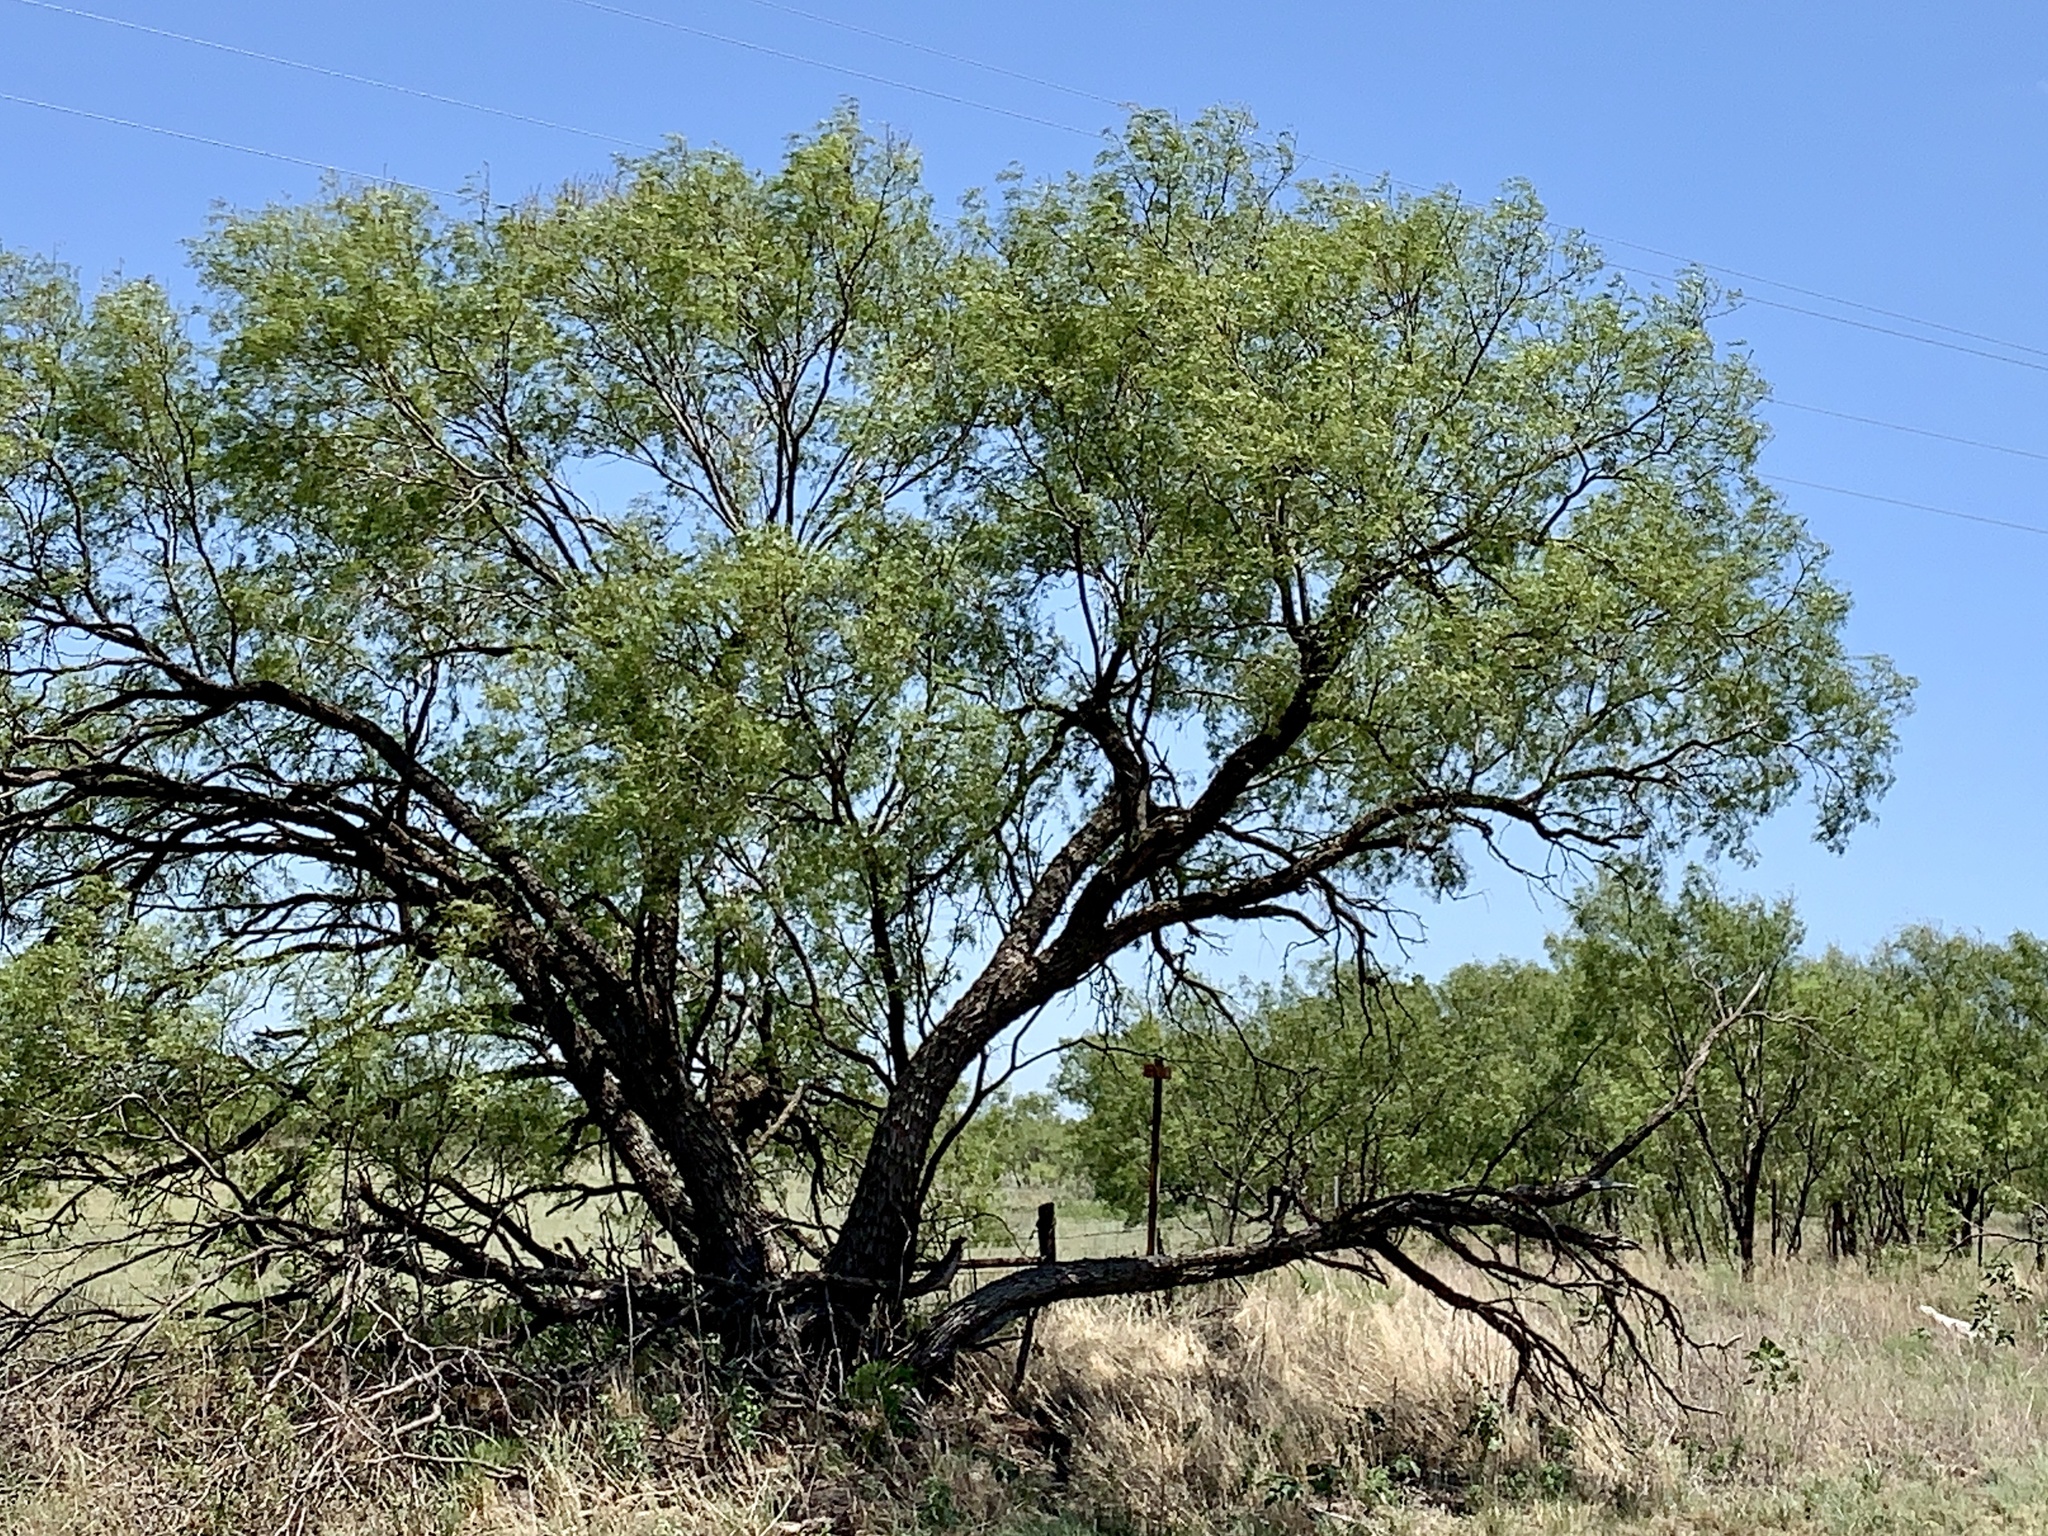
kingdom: Plantae
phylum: Tracheophyta
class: Magnoliopsida
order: Fabales
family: Fabaceae
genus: Prosopis
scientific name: Prosopis glandulosa
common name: Honey mesquite
